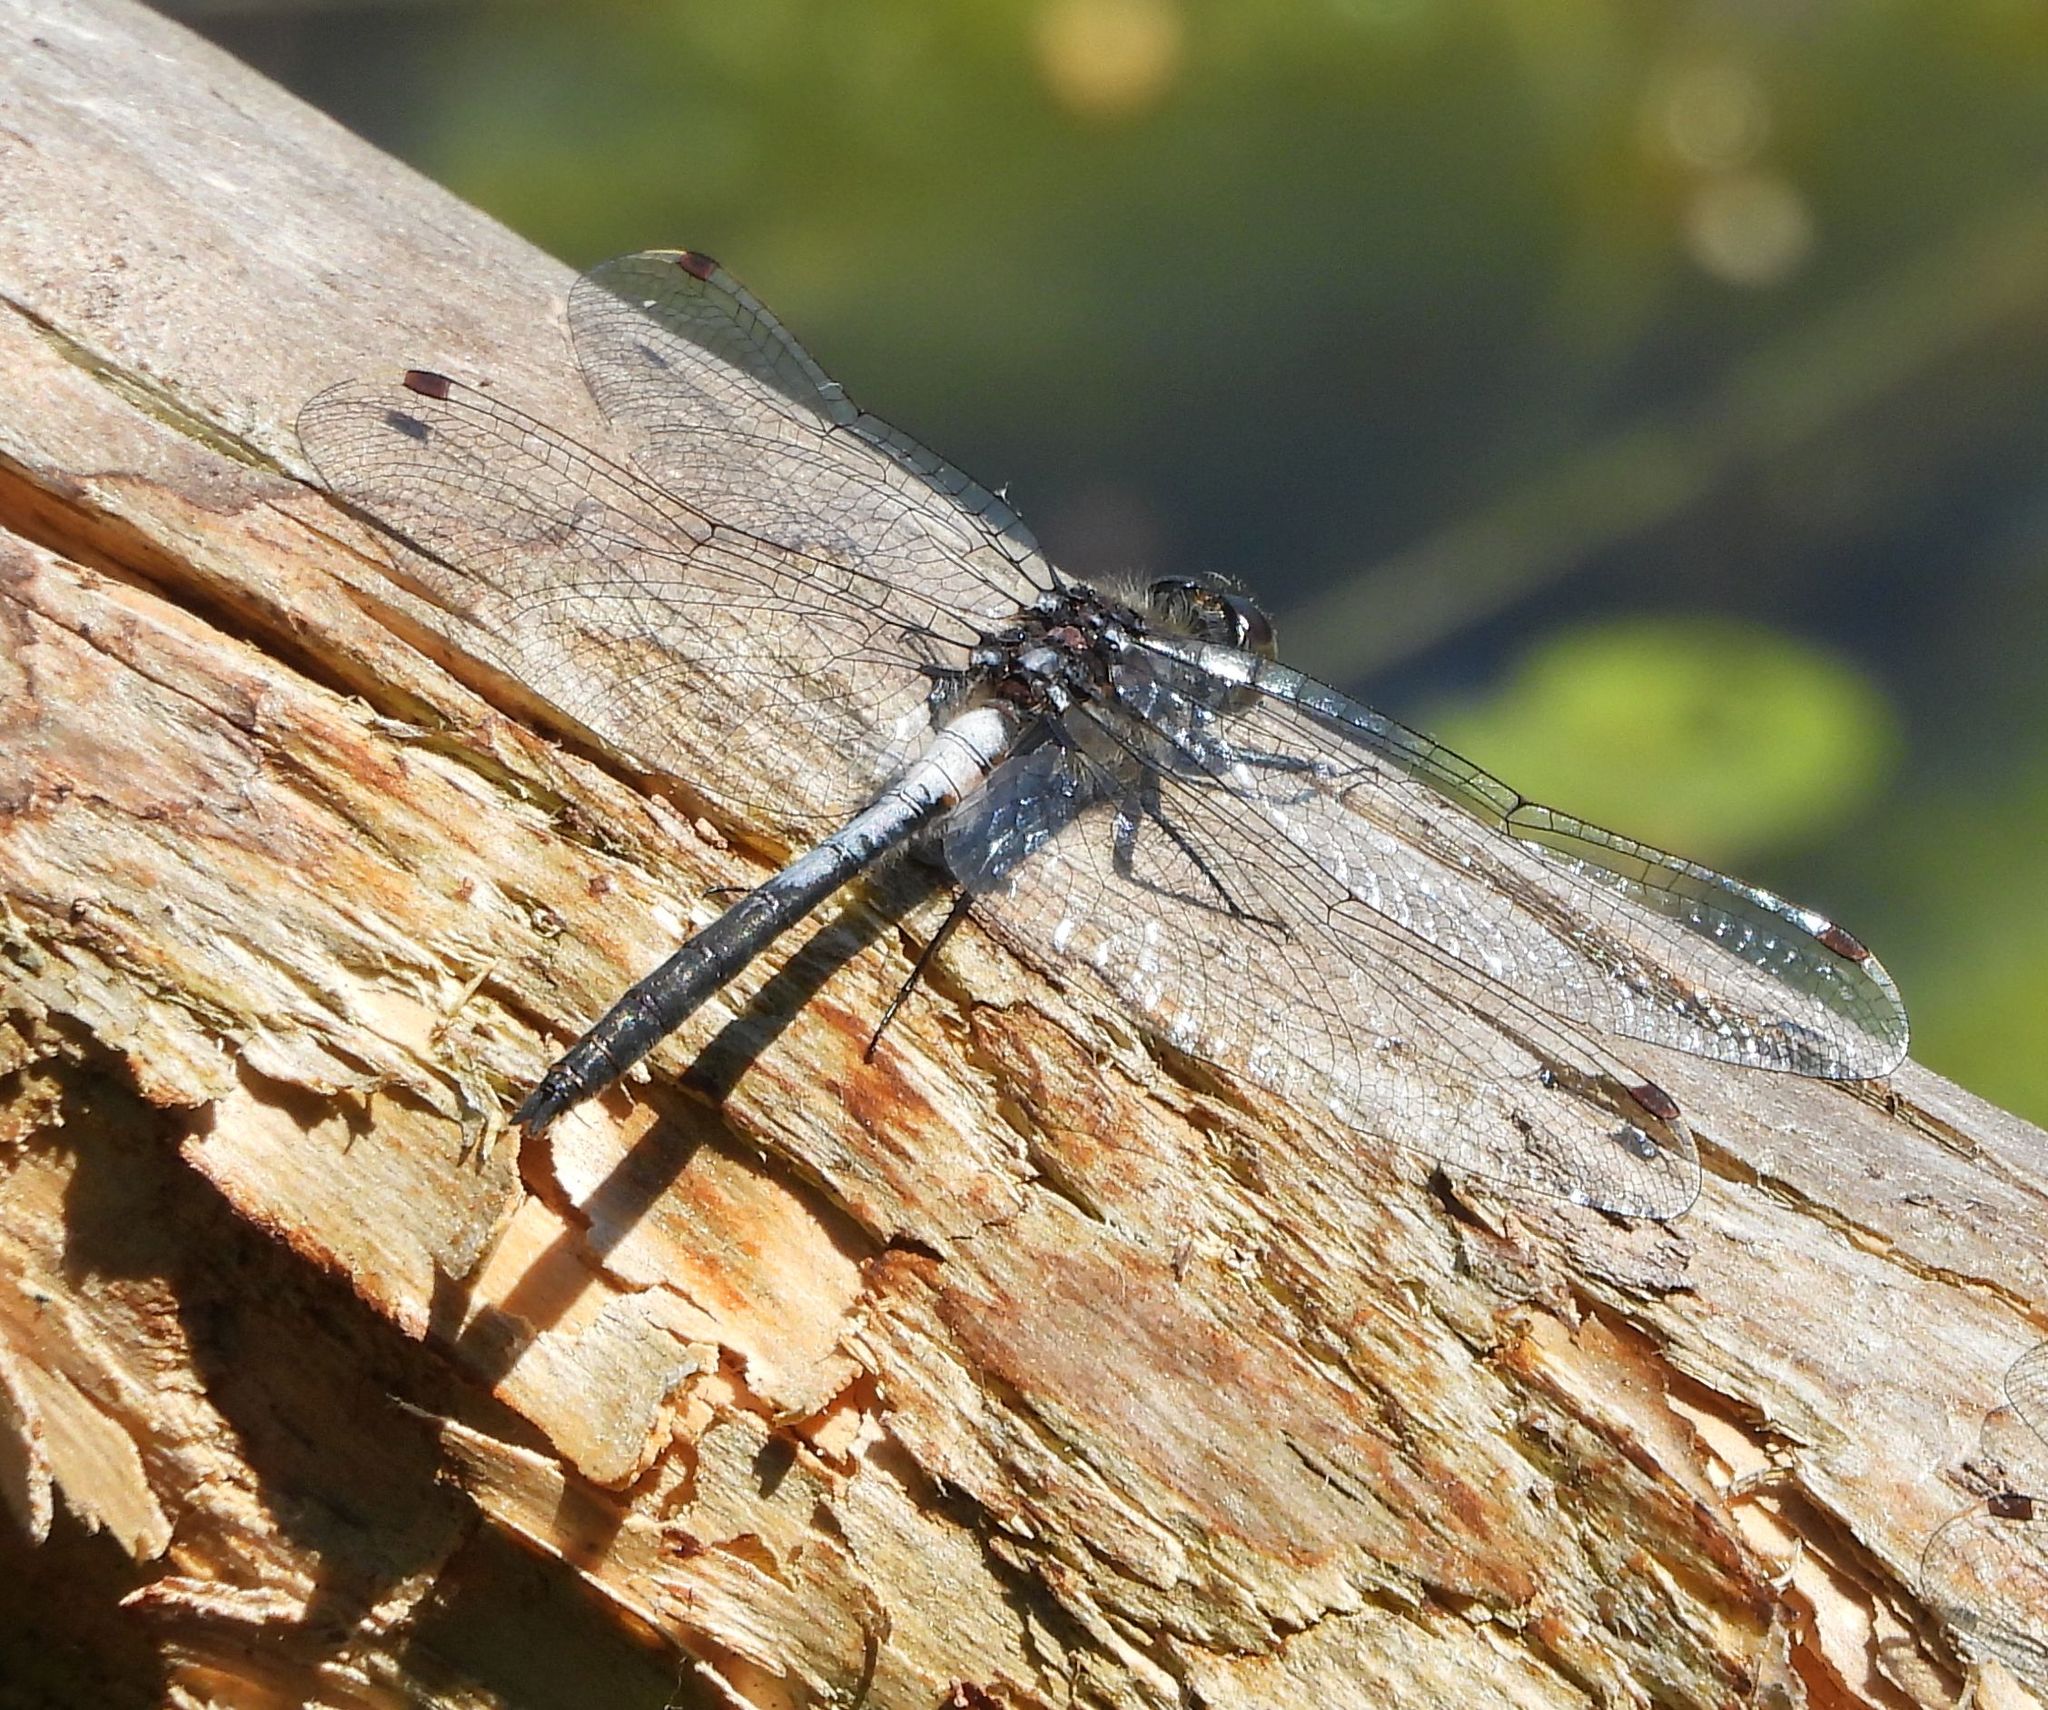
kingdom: Animalia
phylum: Arthropoda
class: Insecta
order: Odonata
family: Libellulidae
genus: Leucorrhinia
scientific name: Leucorrhinia proxima
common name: Belted whiteface
